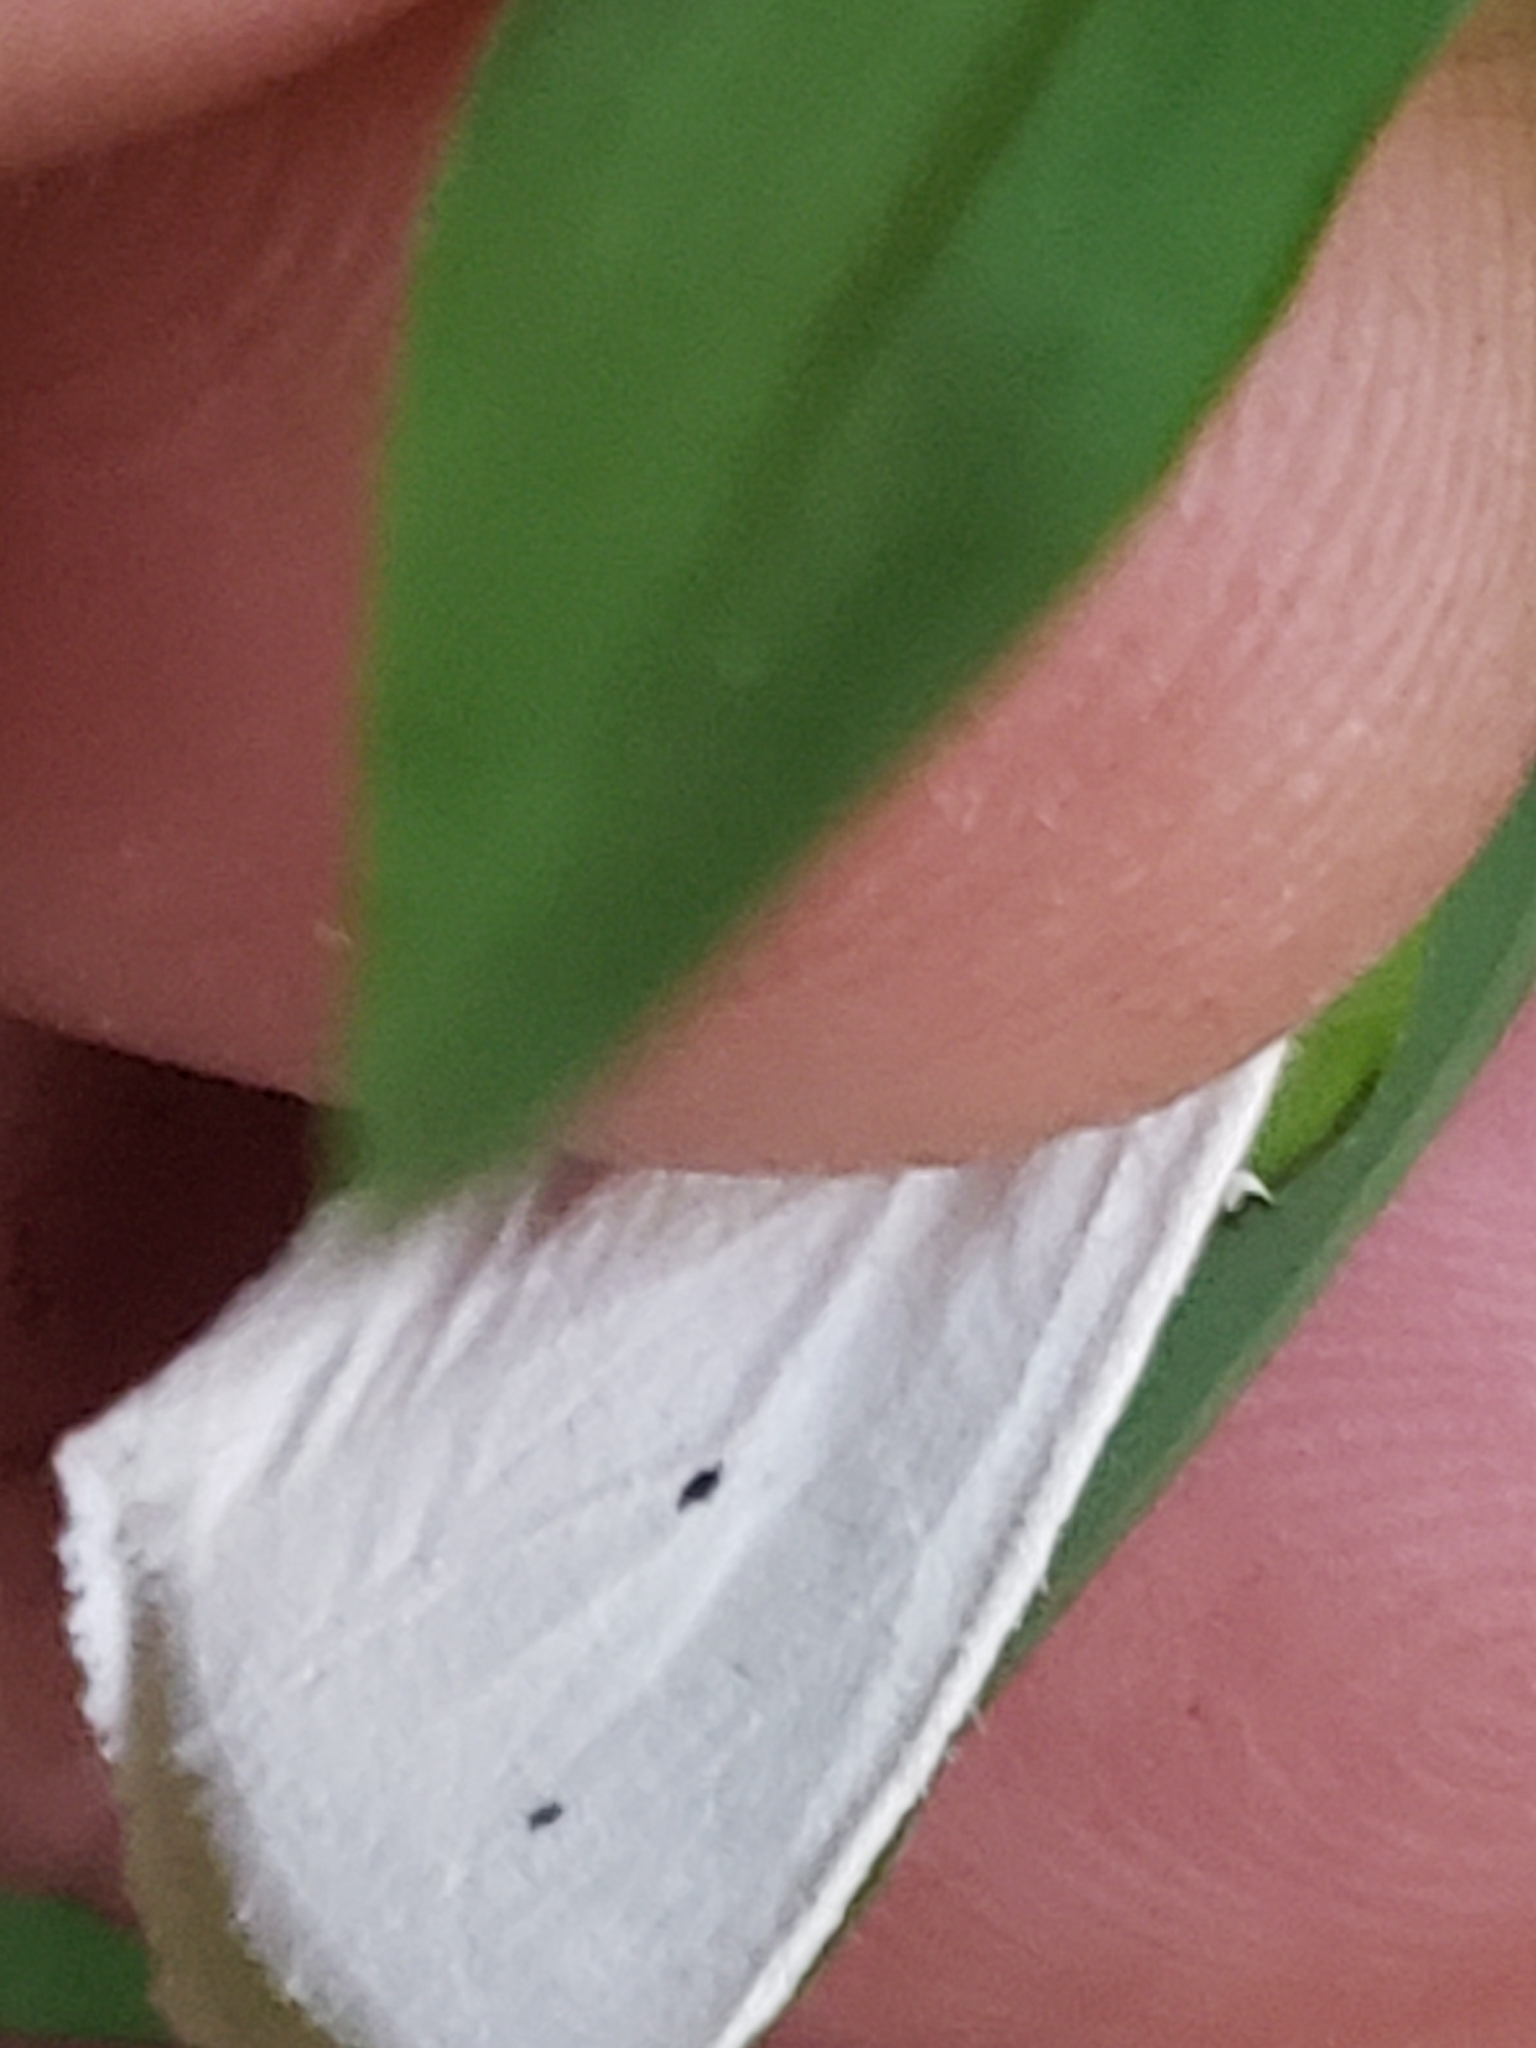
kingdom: Animalia
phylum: Arthropoda
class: Insecta
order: Lepidoptera
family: Erebidae
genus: Spilosoma
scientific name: Spilosoma virginica
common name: Virginia tiger moth
